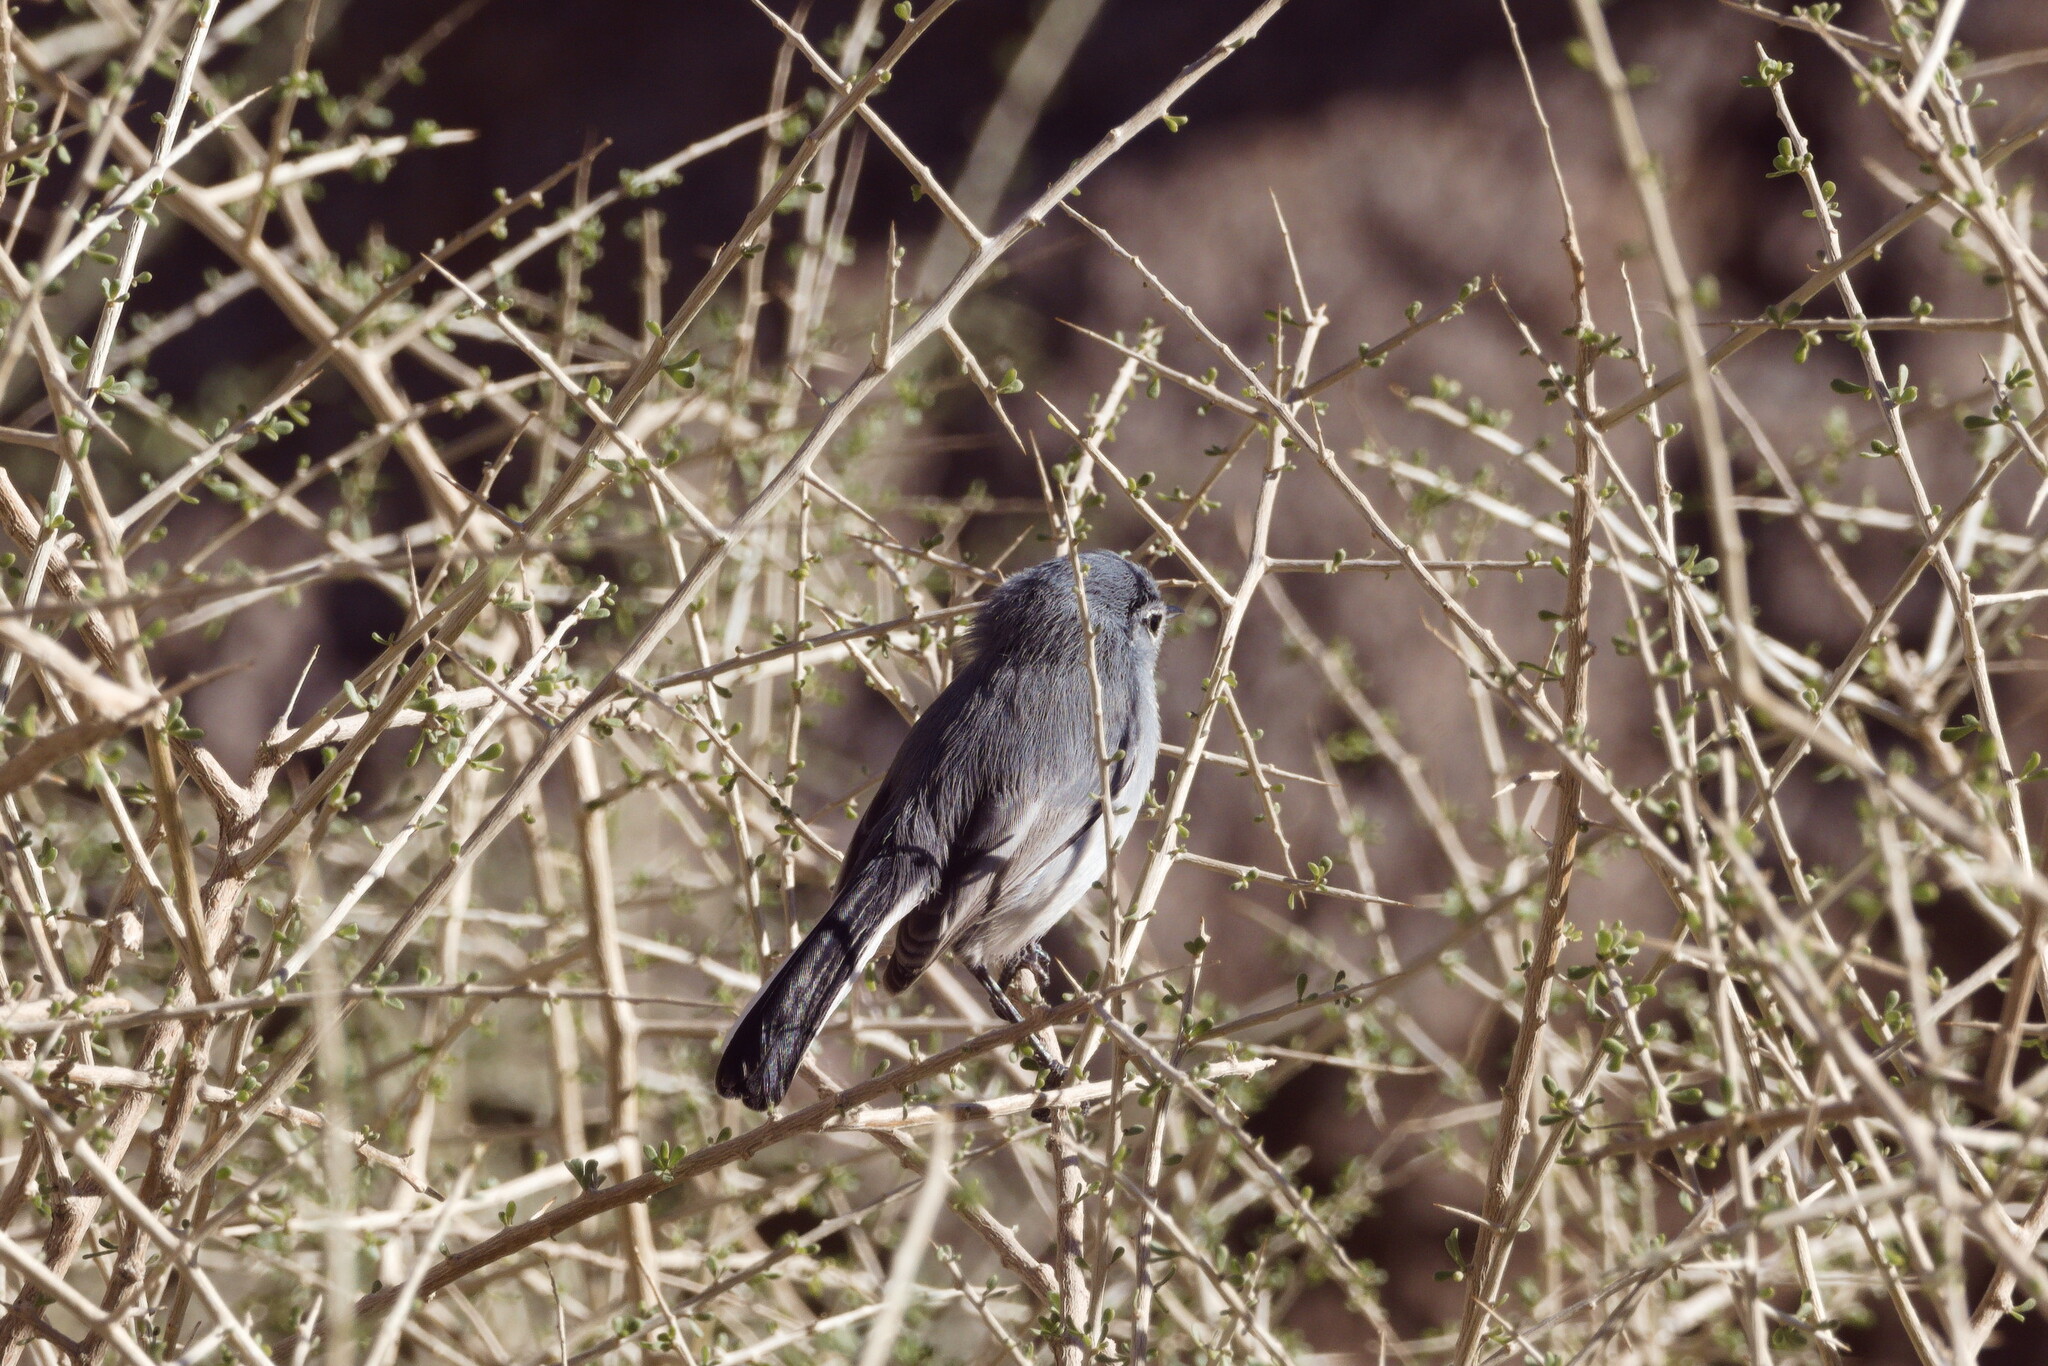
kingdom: Animalia
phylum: Chordata
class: Aves
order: Passeriformes
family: Polioptilidae
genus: Polioptila
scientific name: Polioptila melanura
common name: Black-tailed gnatcatcher
